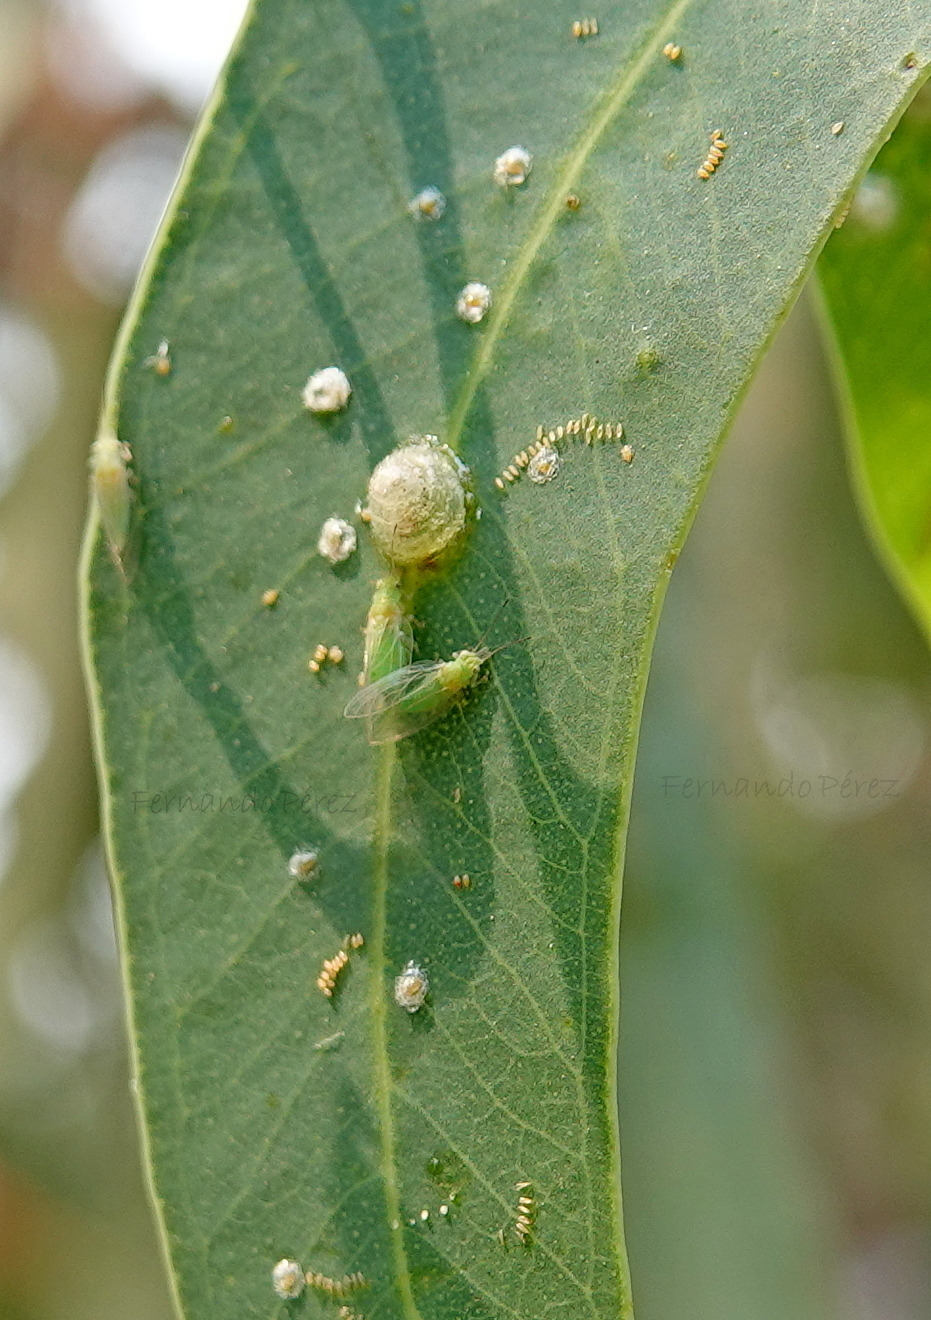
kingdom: Animalia
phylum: Arthropoda
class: Insecta
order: Hemiptera
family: Aphalaridae
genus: Glycaspis
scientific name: Glycaspis brimblecombei
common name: Red gum lerp psyllid
